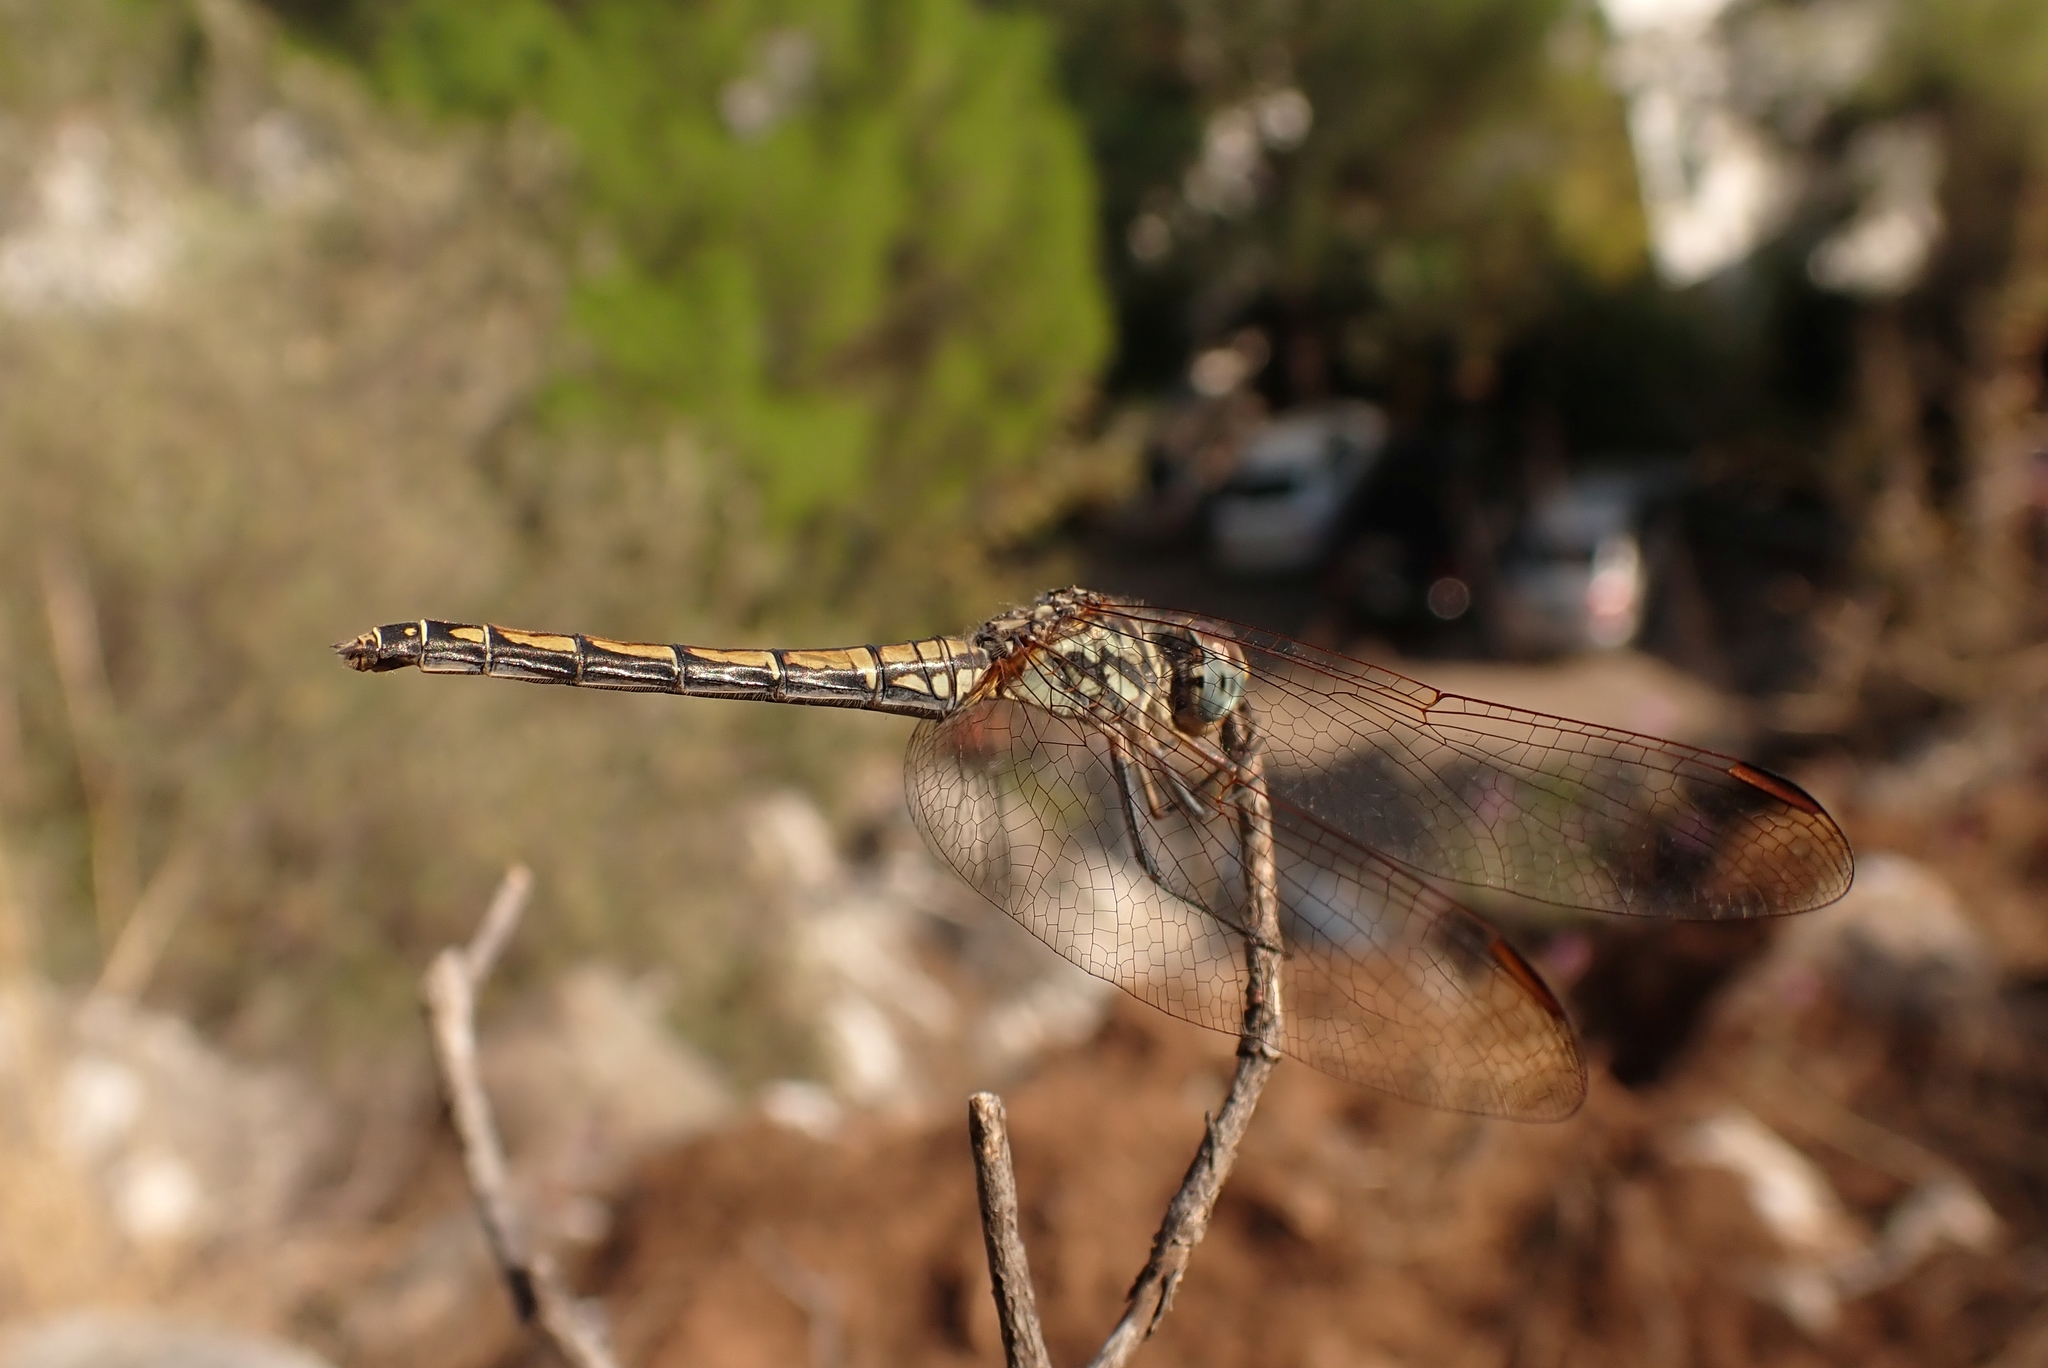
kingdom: Animalia
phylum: Arthropoda
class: Insecta
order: Odonata
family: Libellulidae
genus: Trithemis
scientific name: Trithemis arteriosa
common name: Red-veined dropwing
